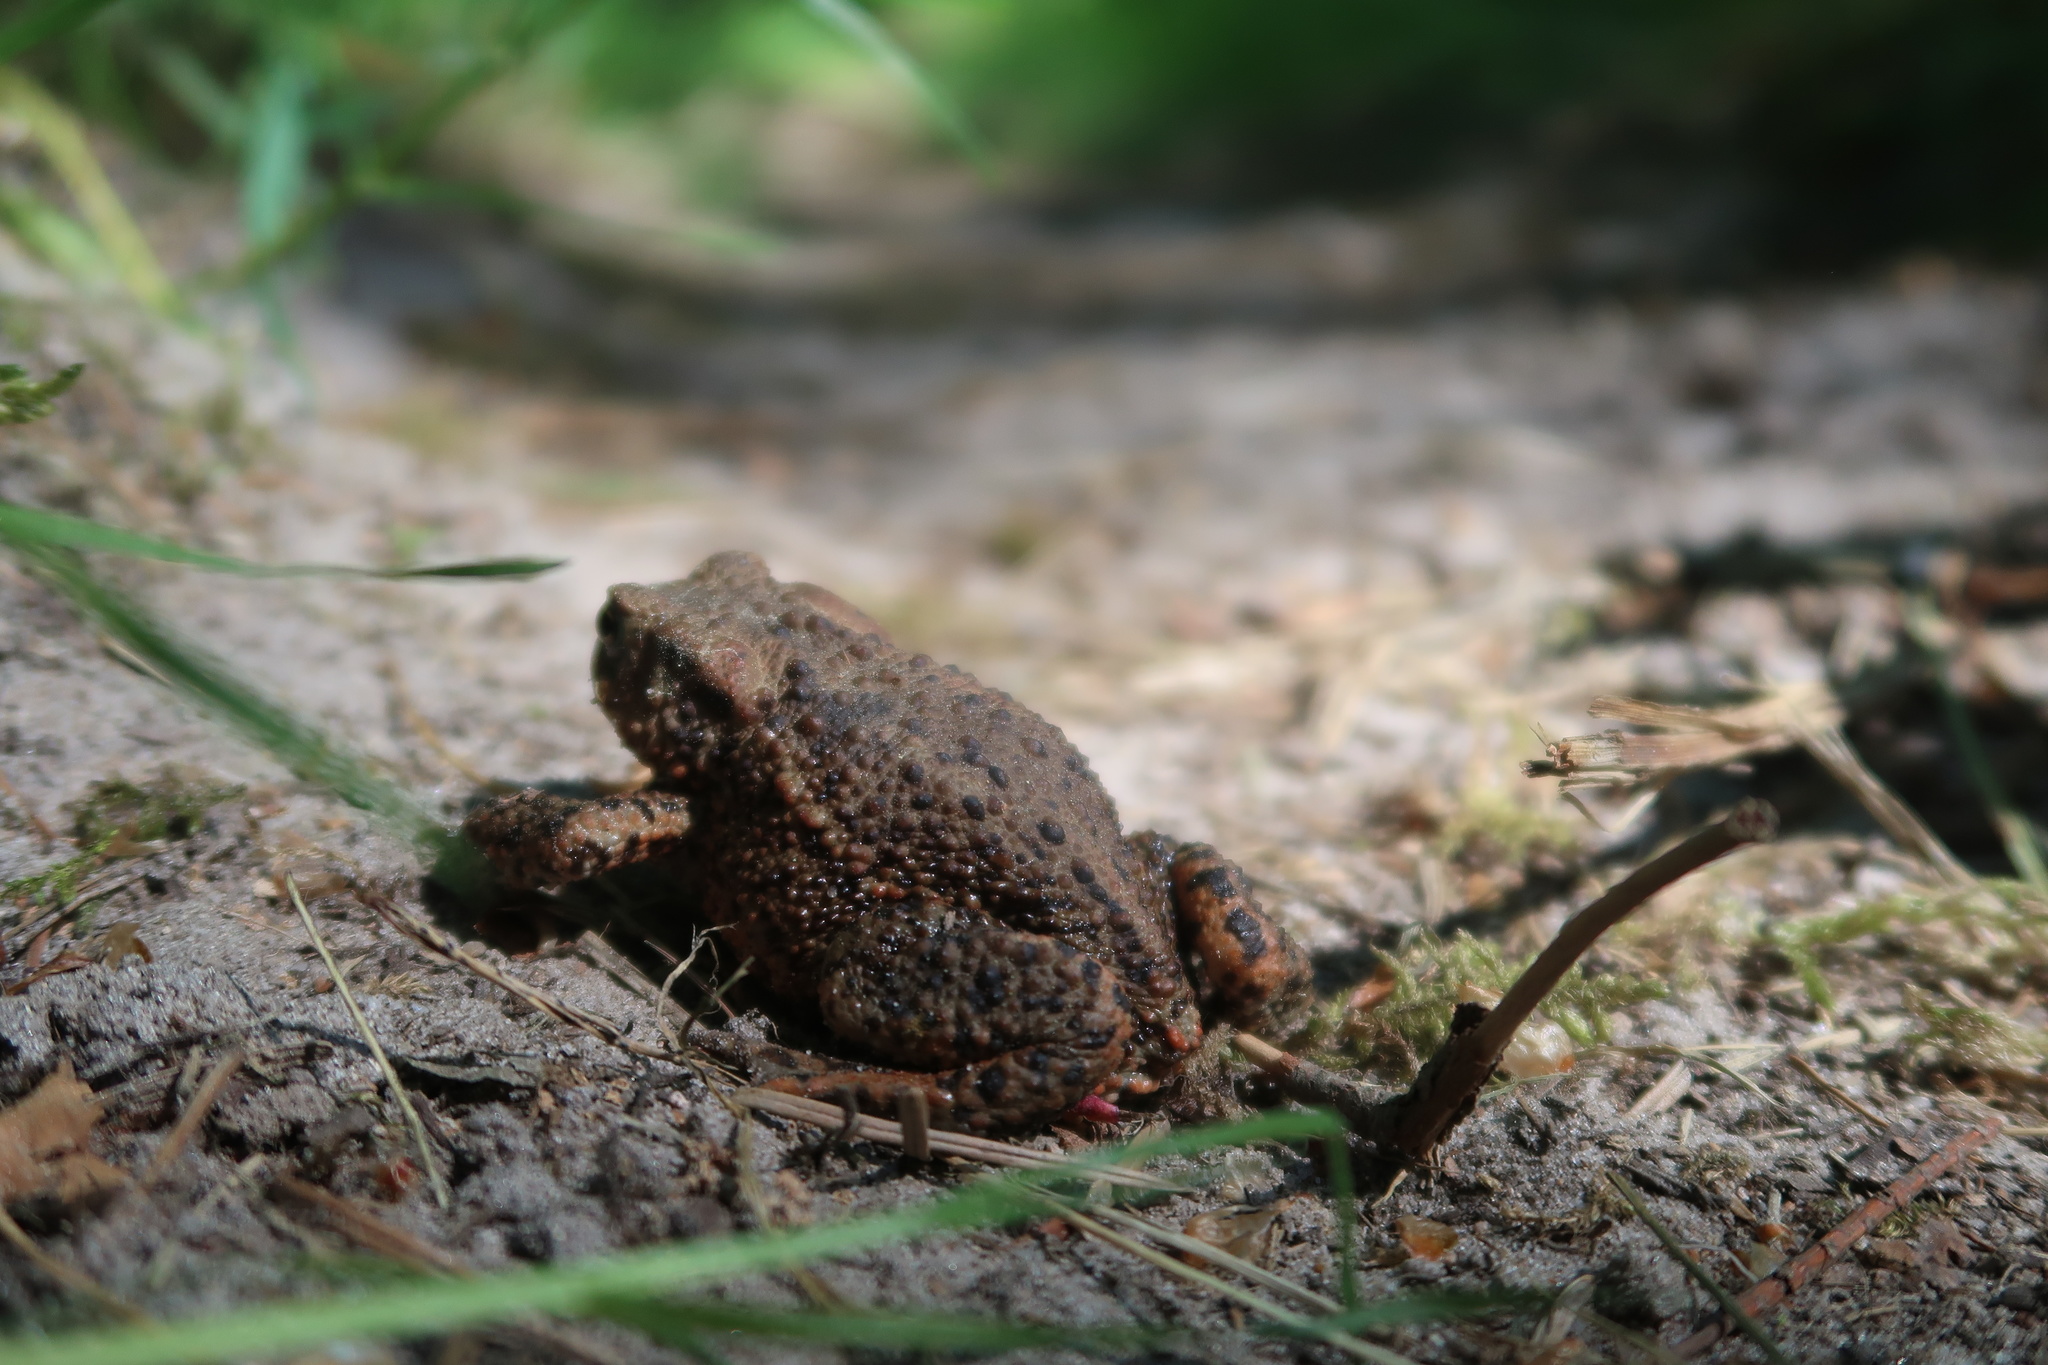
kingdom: Animalia
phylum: Chordata
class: Amphibia
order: Anura
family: Bufonidae
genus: Bufo
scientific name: Bufo bufo
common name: Common toad
